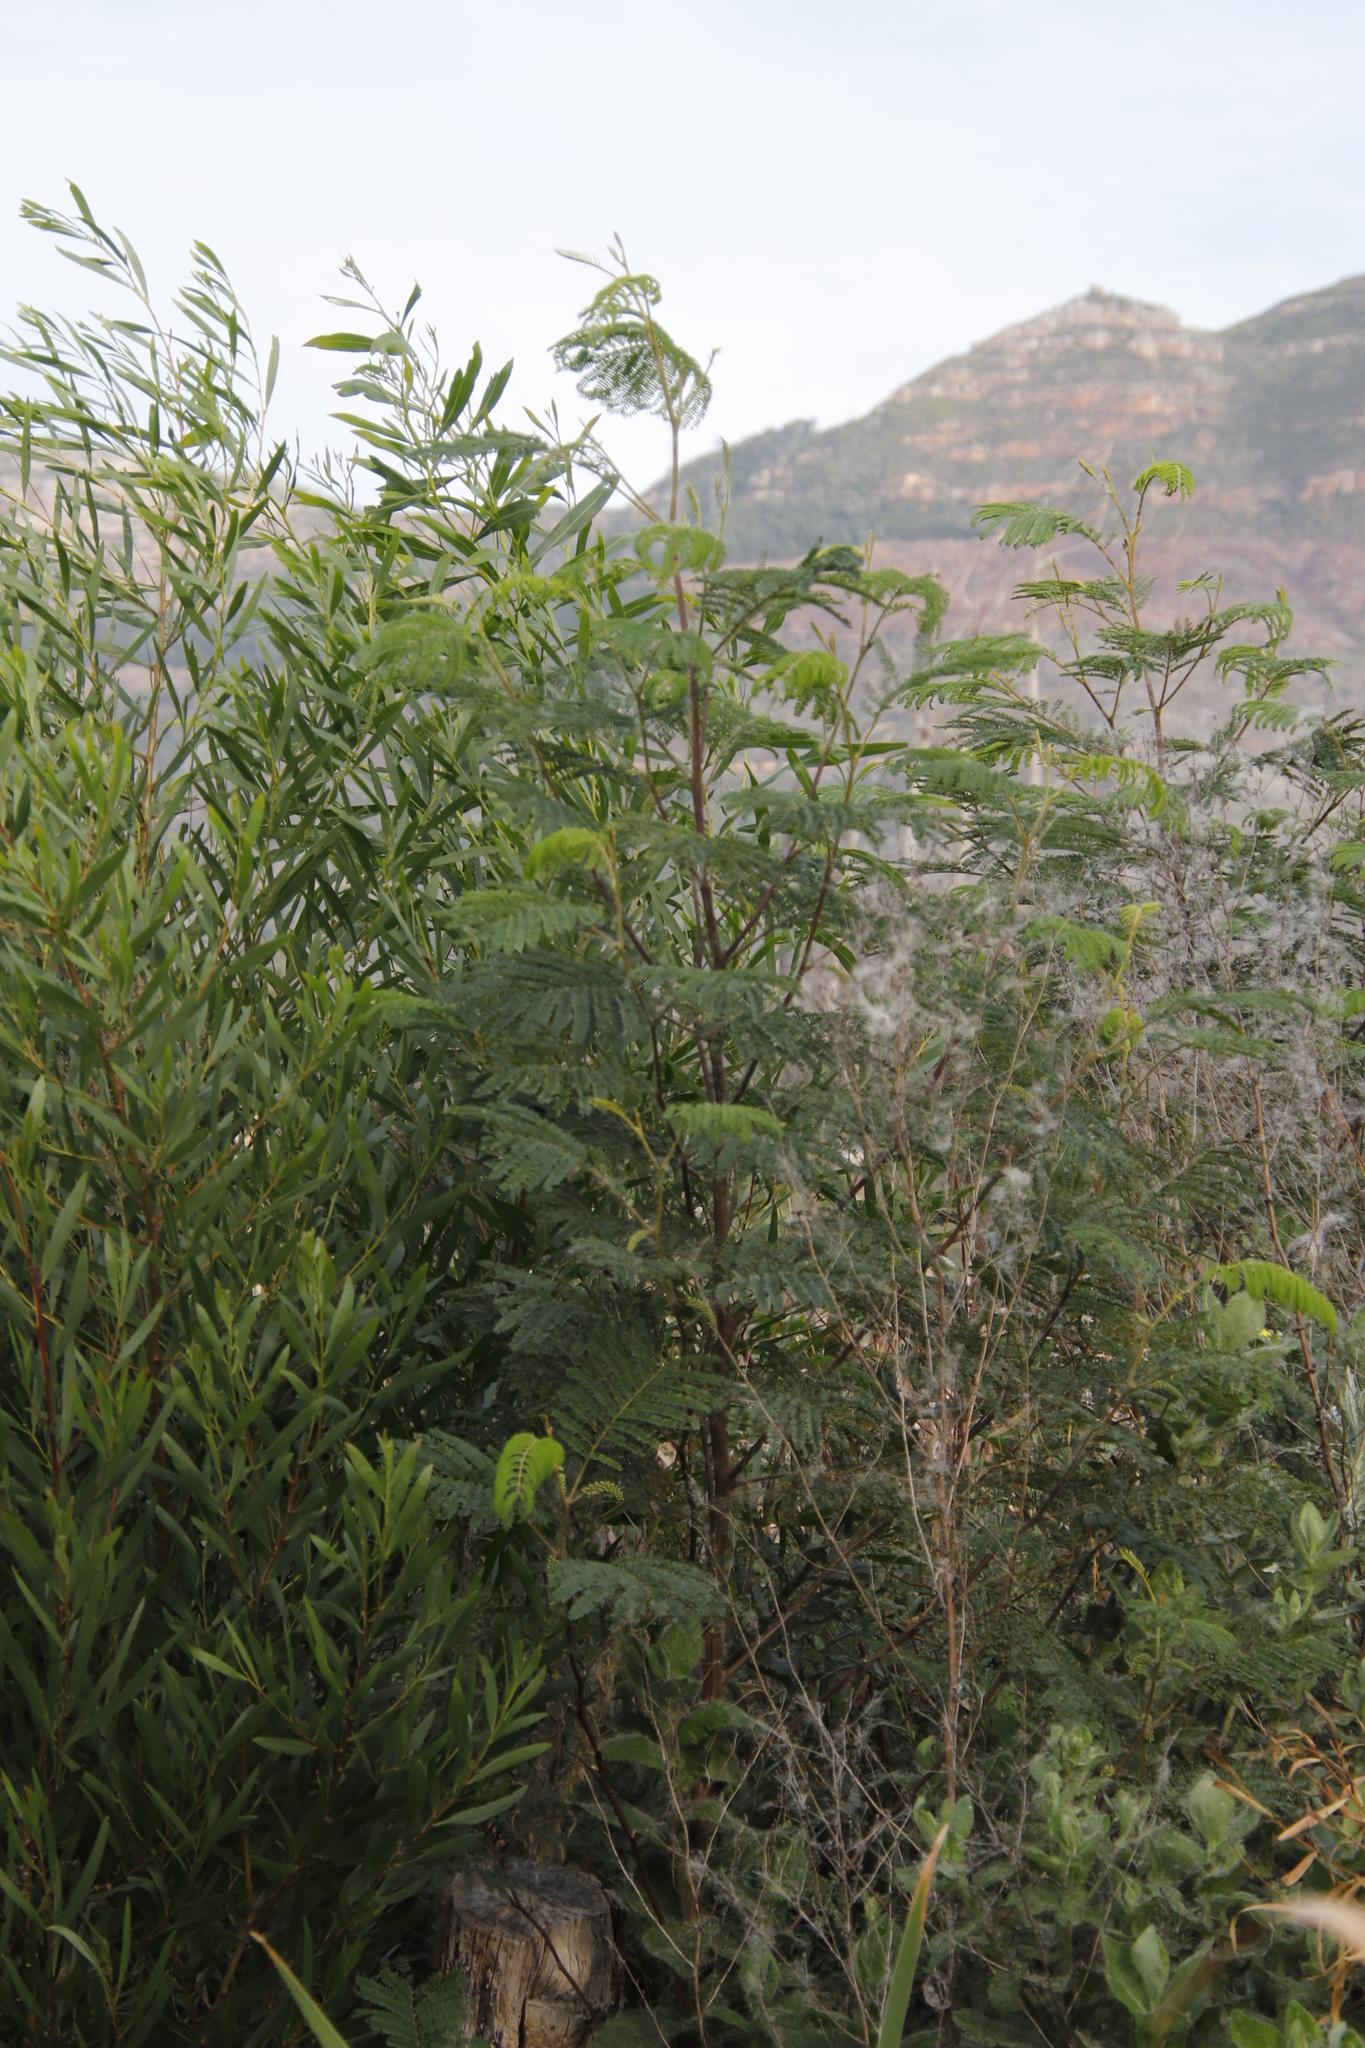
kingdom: Plantae
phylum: Tracheophyta
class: Magnoliopsida
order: Fabales
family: Fabaceae
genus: Paraserianthes
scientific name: Paraserianthes lophantha
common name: Plume albizia
